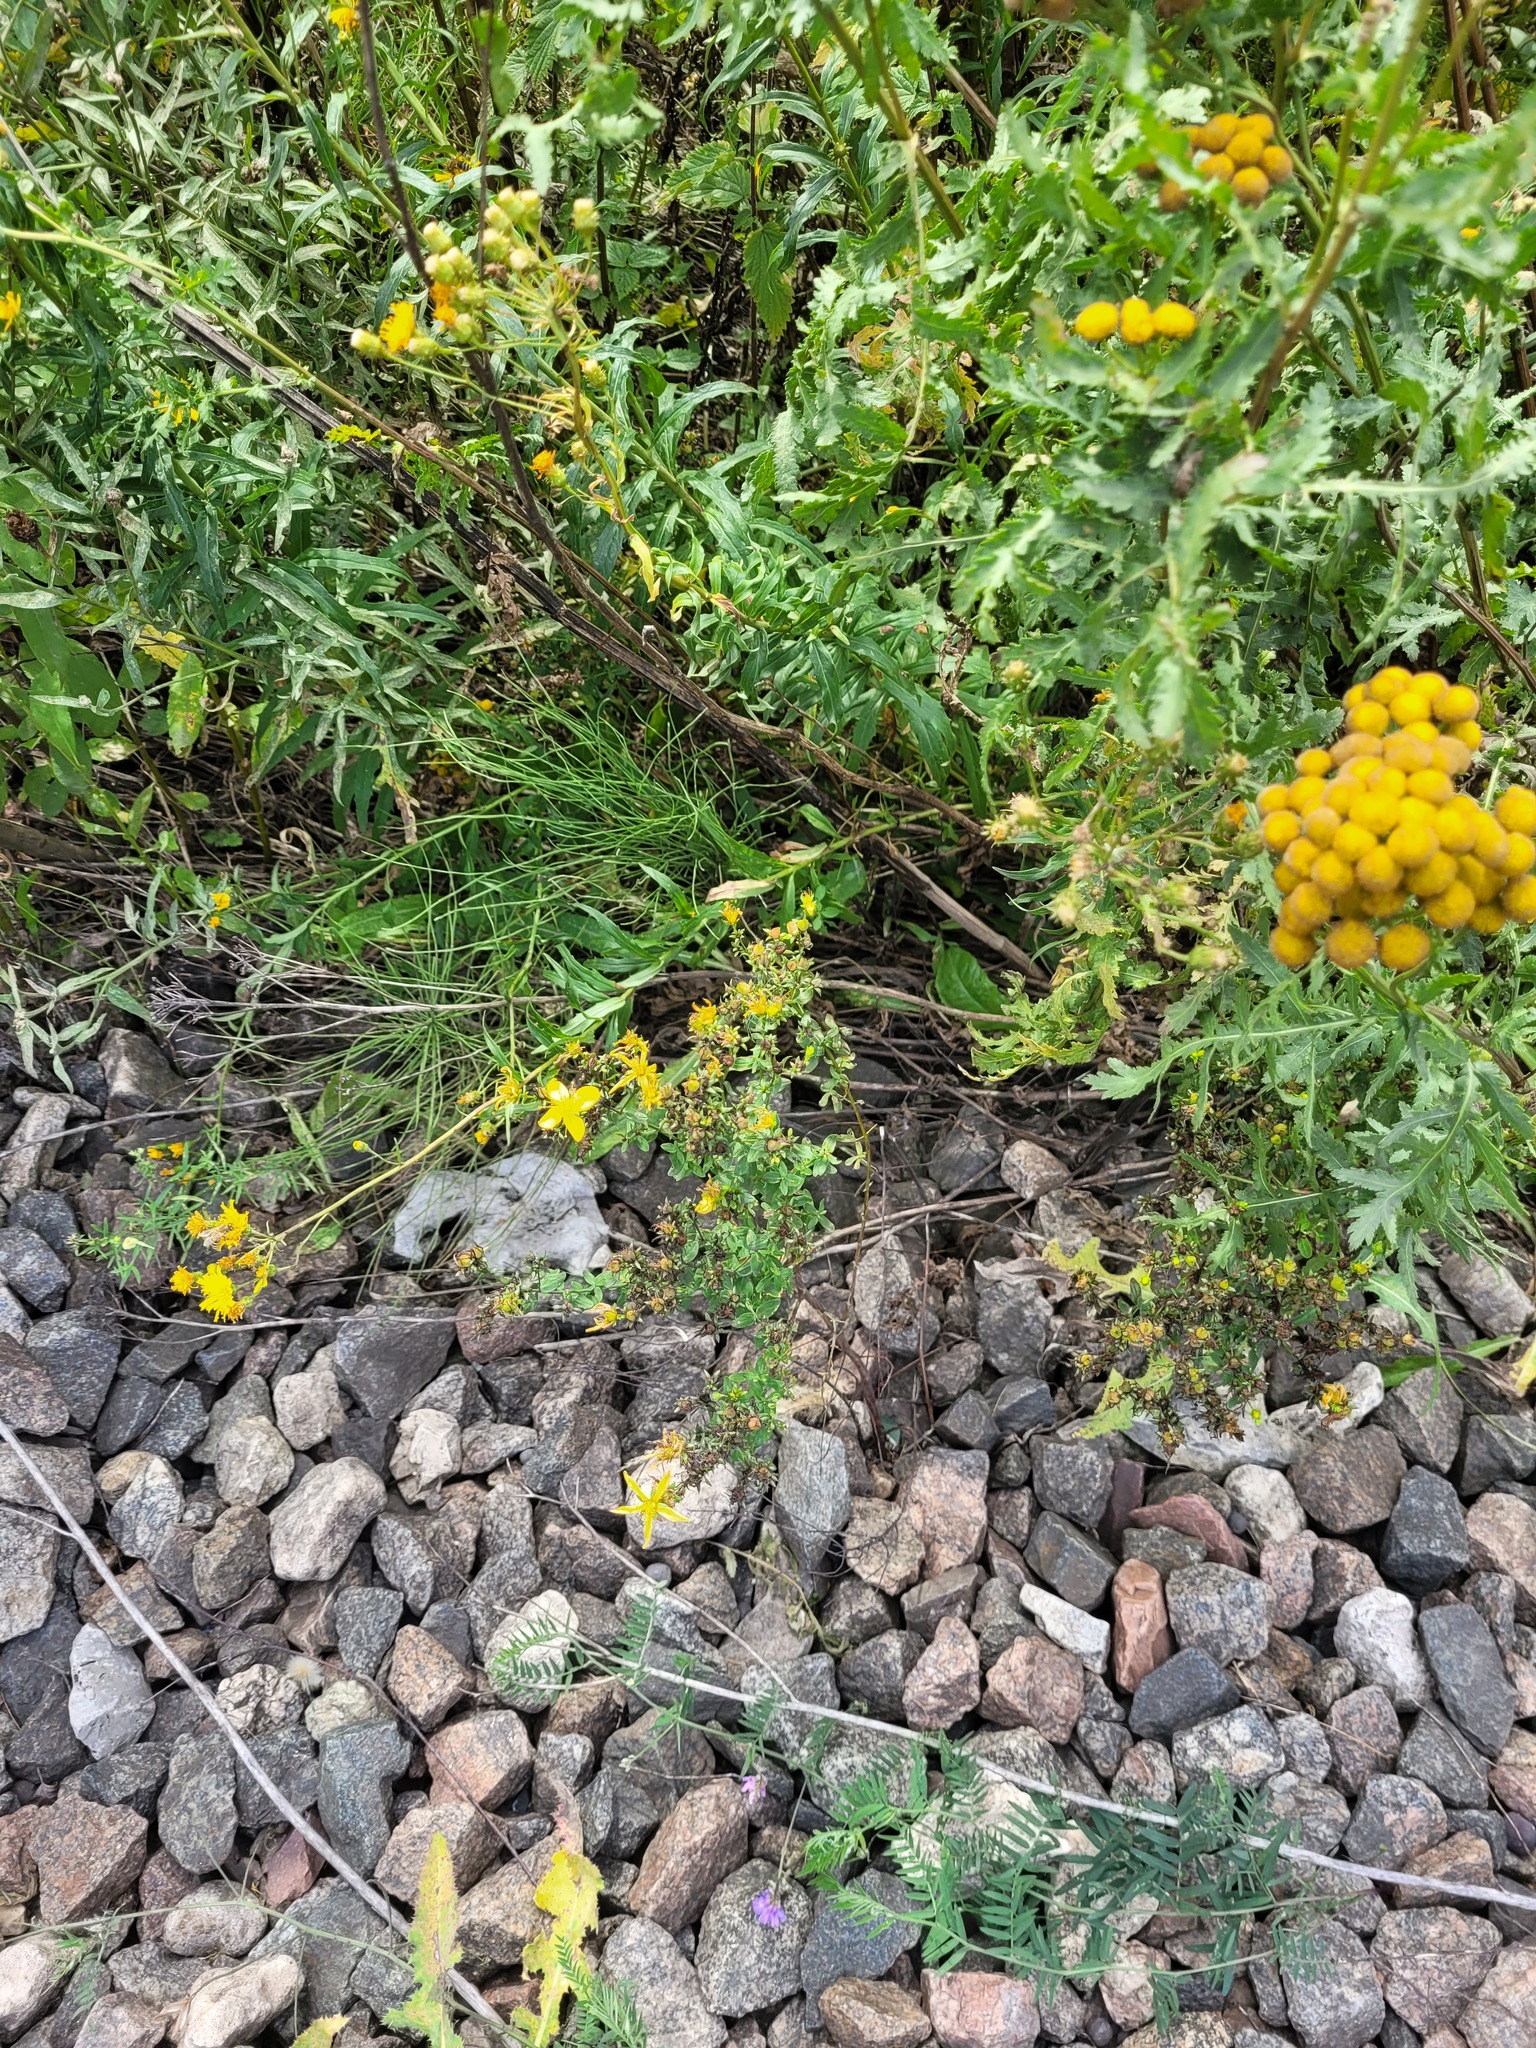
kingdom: Plantae
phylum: Tracheophyta
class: Magnoliopsida
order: Malpighiales
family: Hypericaceae
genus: Hypericum
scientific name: Hypericum perforatum
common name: Common st. johnswort
